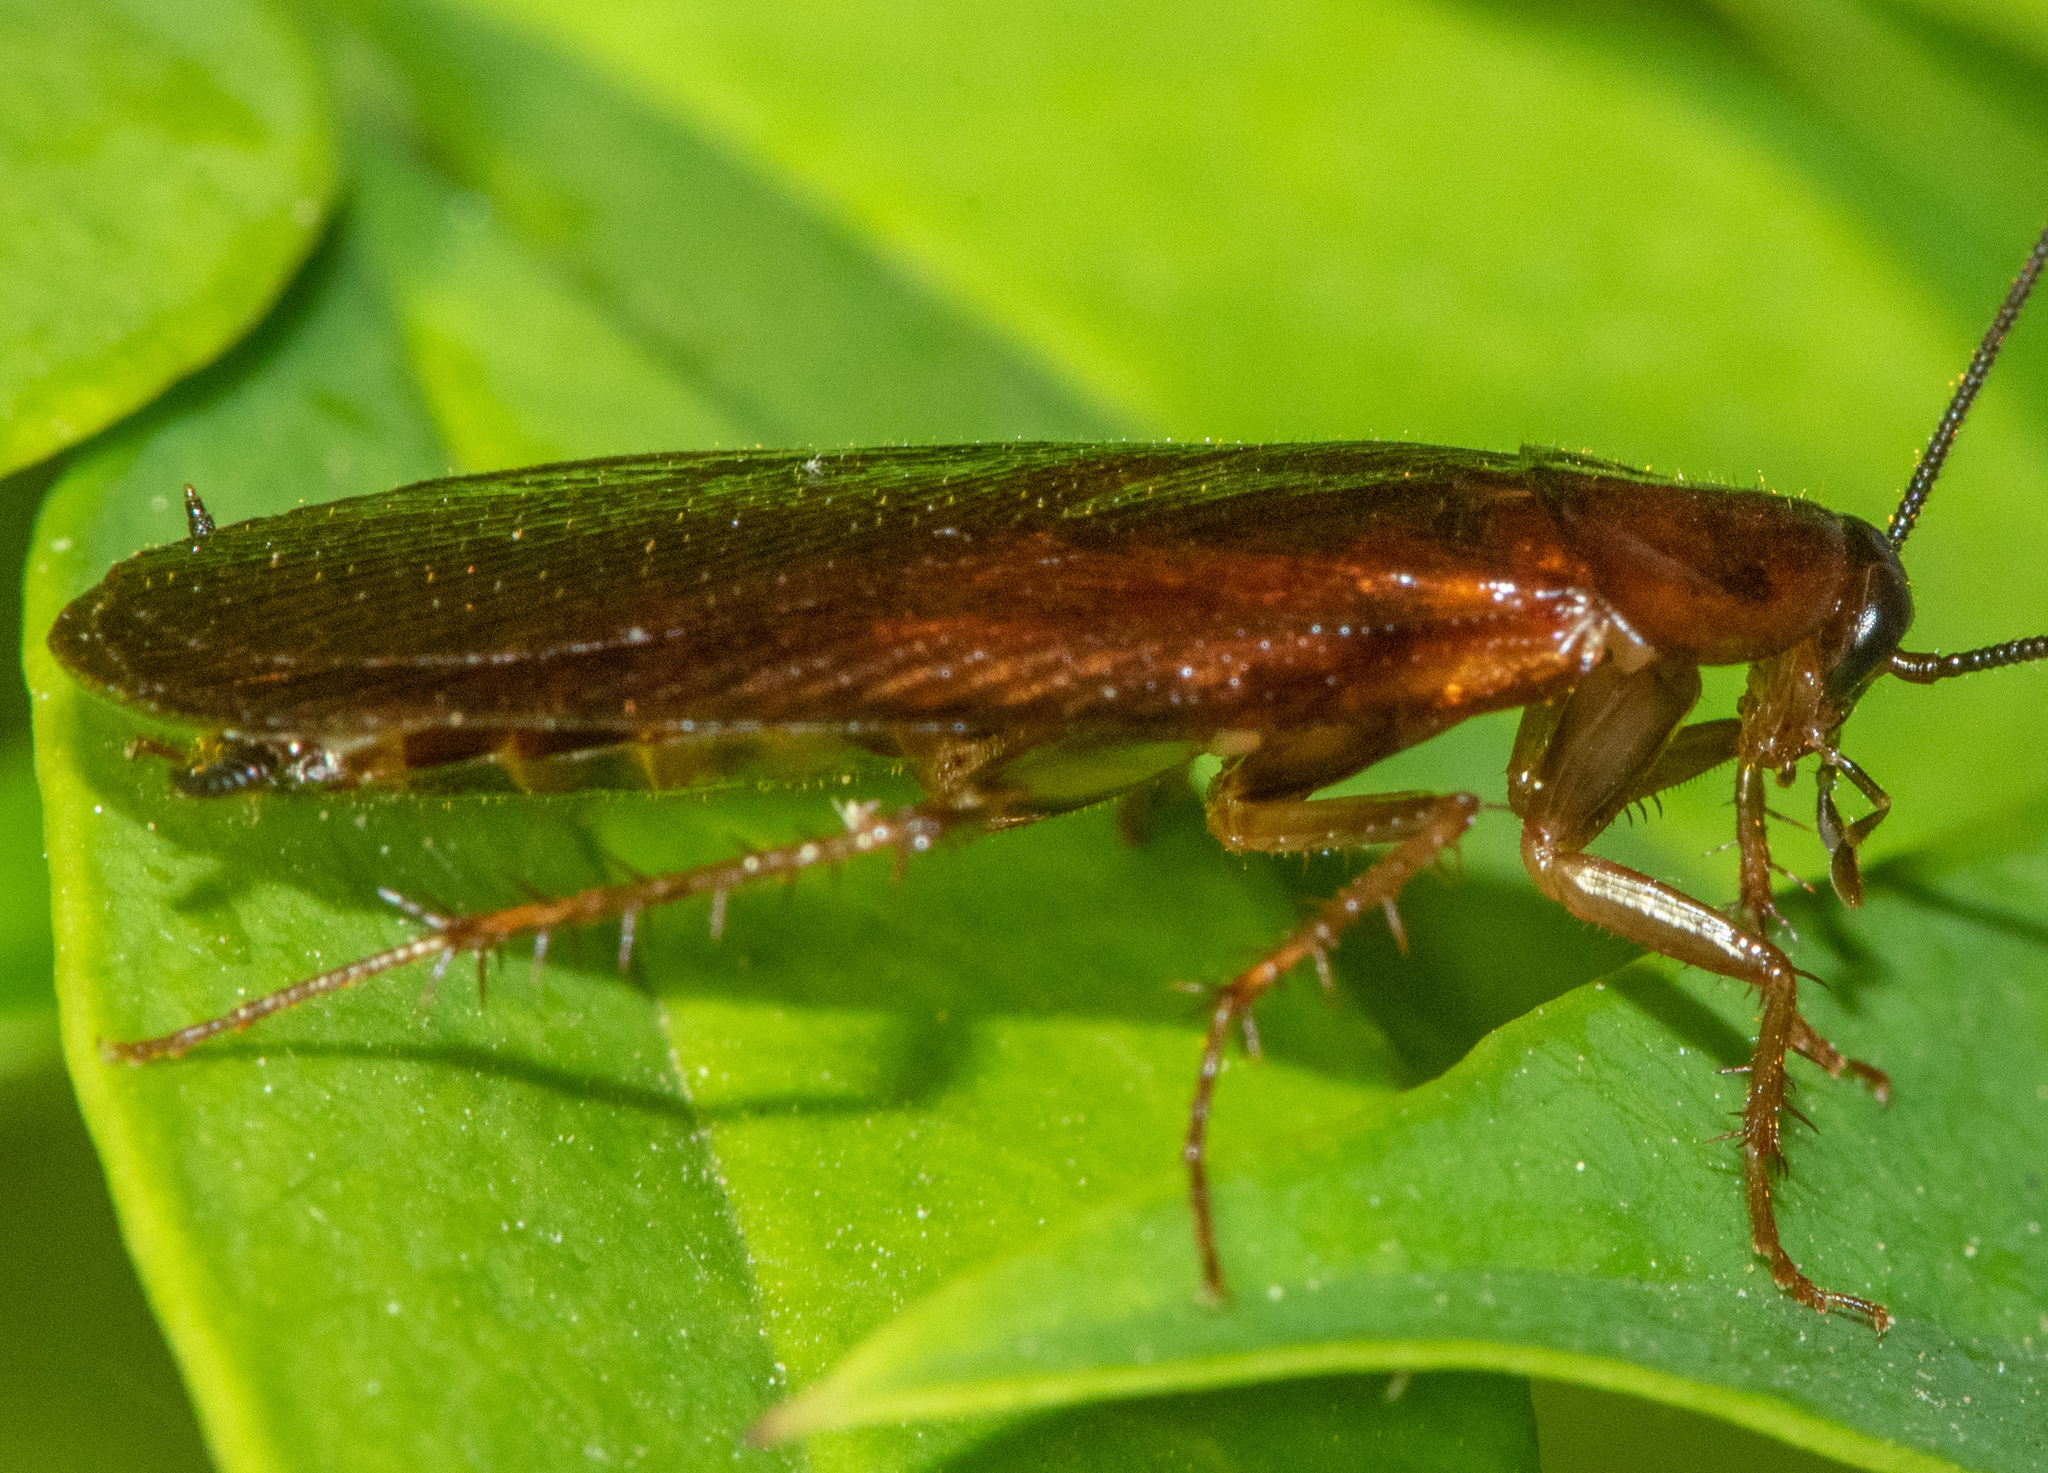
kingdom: Animalia
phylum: Arthropoda
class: Insecta
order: Blattodea
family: Ectobiidae
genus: Parcoblatta
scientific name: Parcoblatta americana
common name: Western wood cockroach
